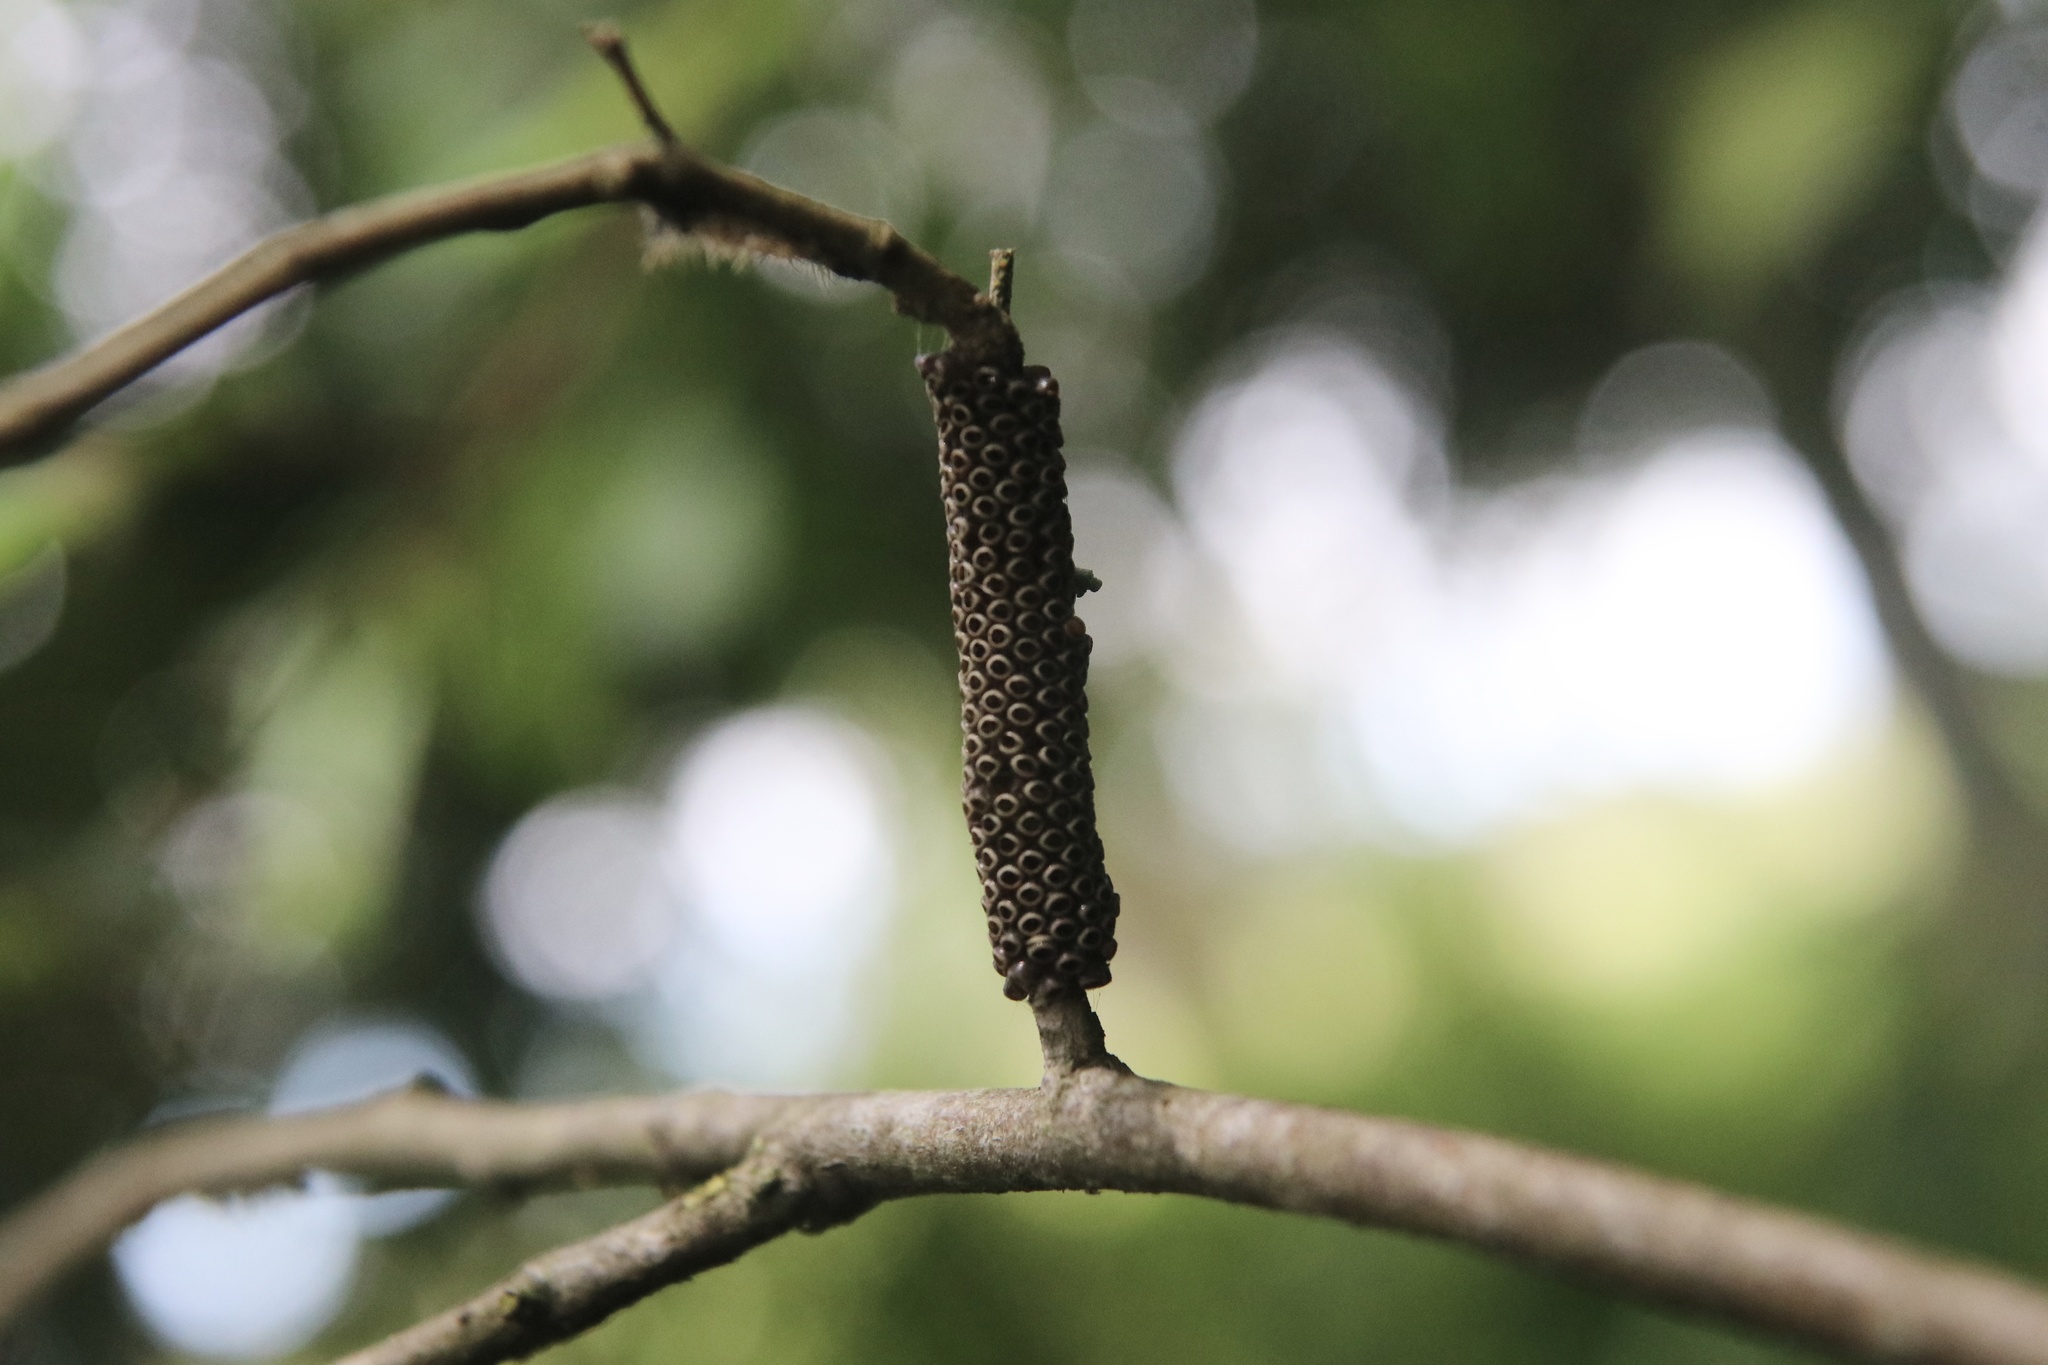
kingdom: Animalia
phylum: Arthropoda
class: Insecta
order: Lepidoptera
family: Saturniidae
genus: Ormiscodes
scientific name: Ormiscodes amphinome
